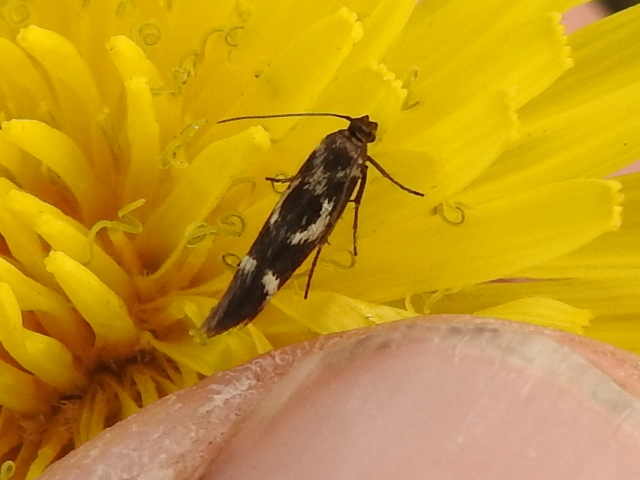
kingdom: Animalia
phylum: Arthropoda
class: Insecta
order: Lepidoptera
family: Scythrididae
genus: Scythris
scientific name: Scythris trivinctella
